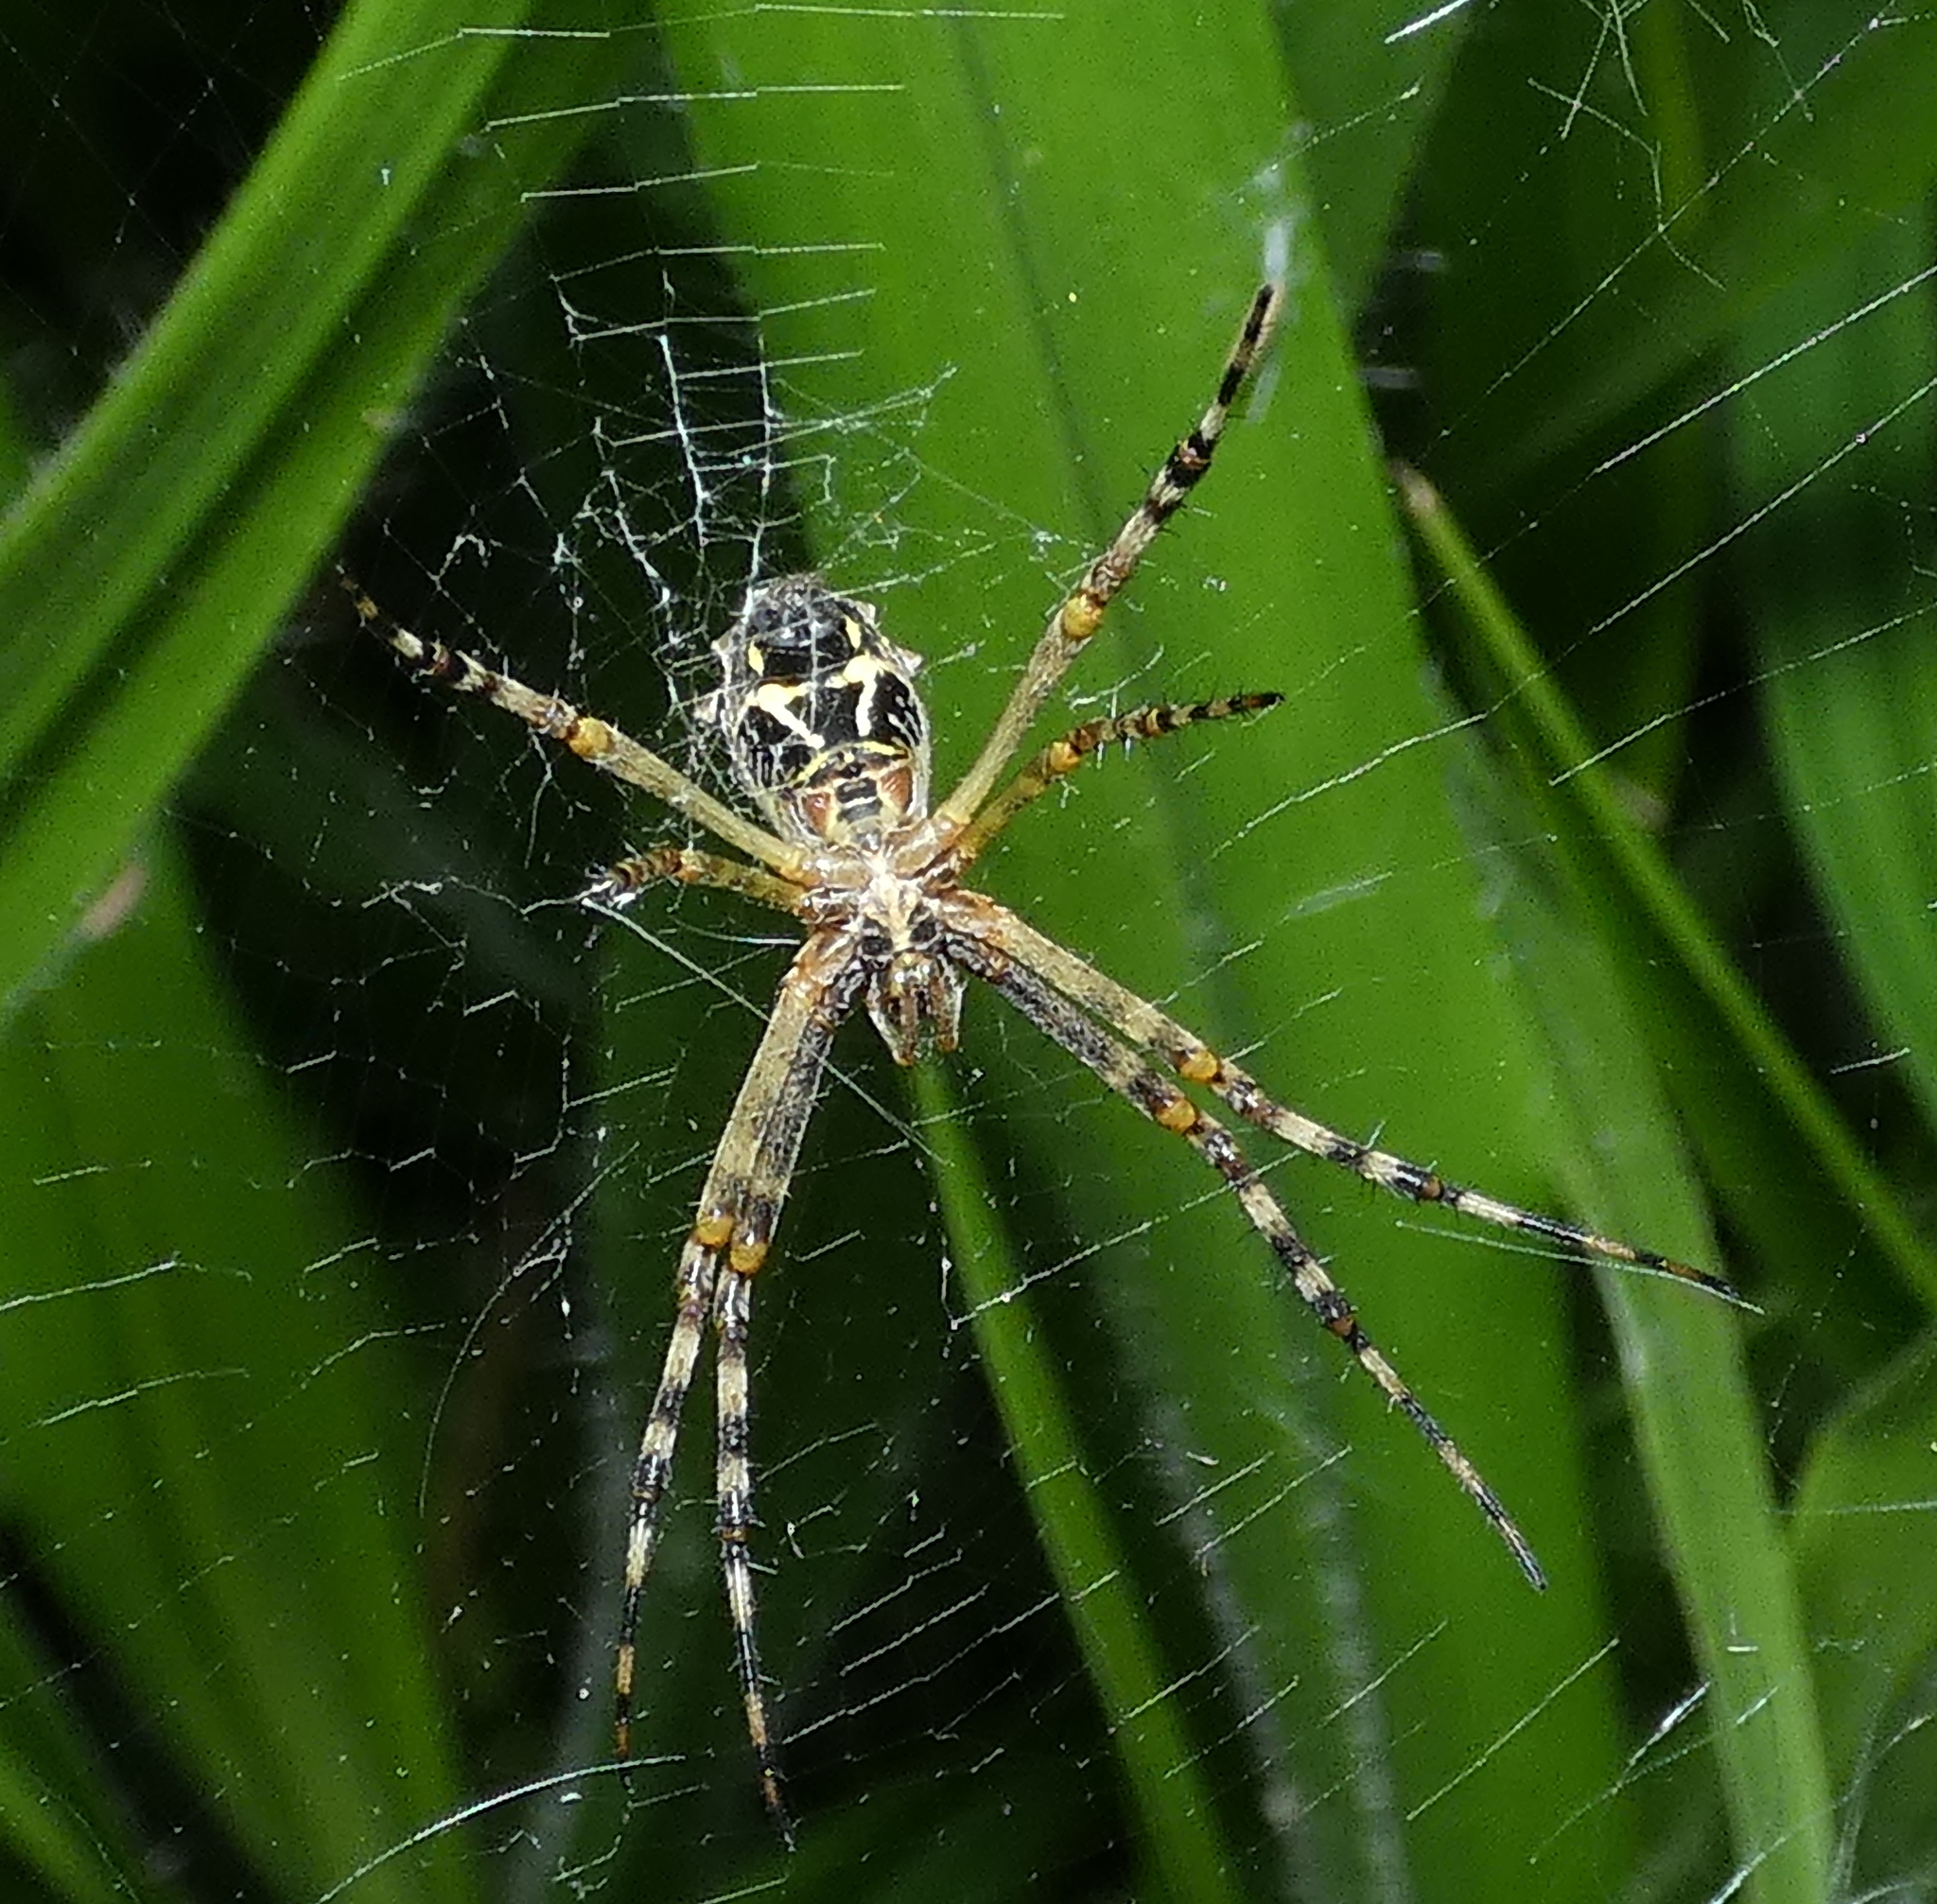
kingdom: Animalia
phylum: Arthropoda
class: Arachnida
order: Araneae
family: Araneidae
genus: Argiope
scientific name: Argiope argentata
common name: Orb weavers
